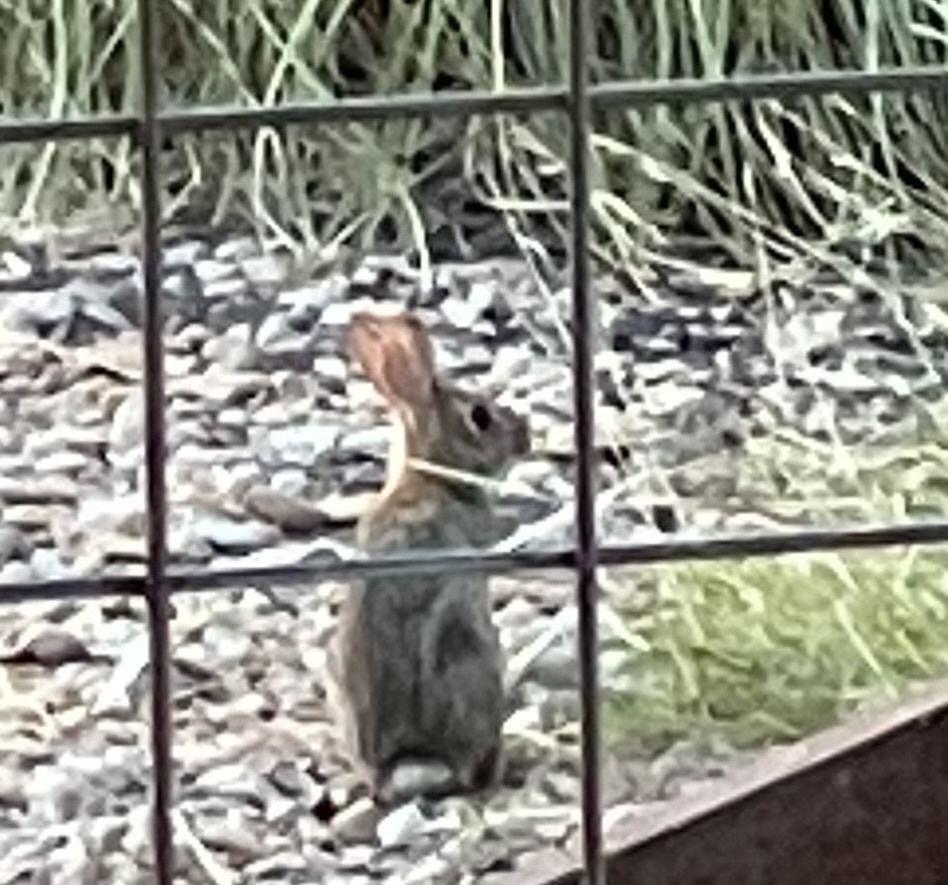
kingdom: Animalia
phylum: Chordata
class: Mammalia
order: Lagomorpha
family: Leporidae
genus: Sylvilagus
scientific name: Sylvilagus floridanus
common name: Eastern cottontail
